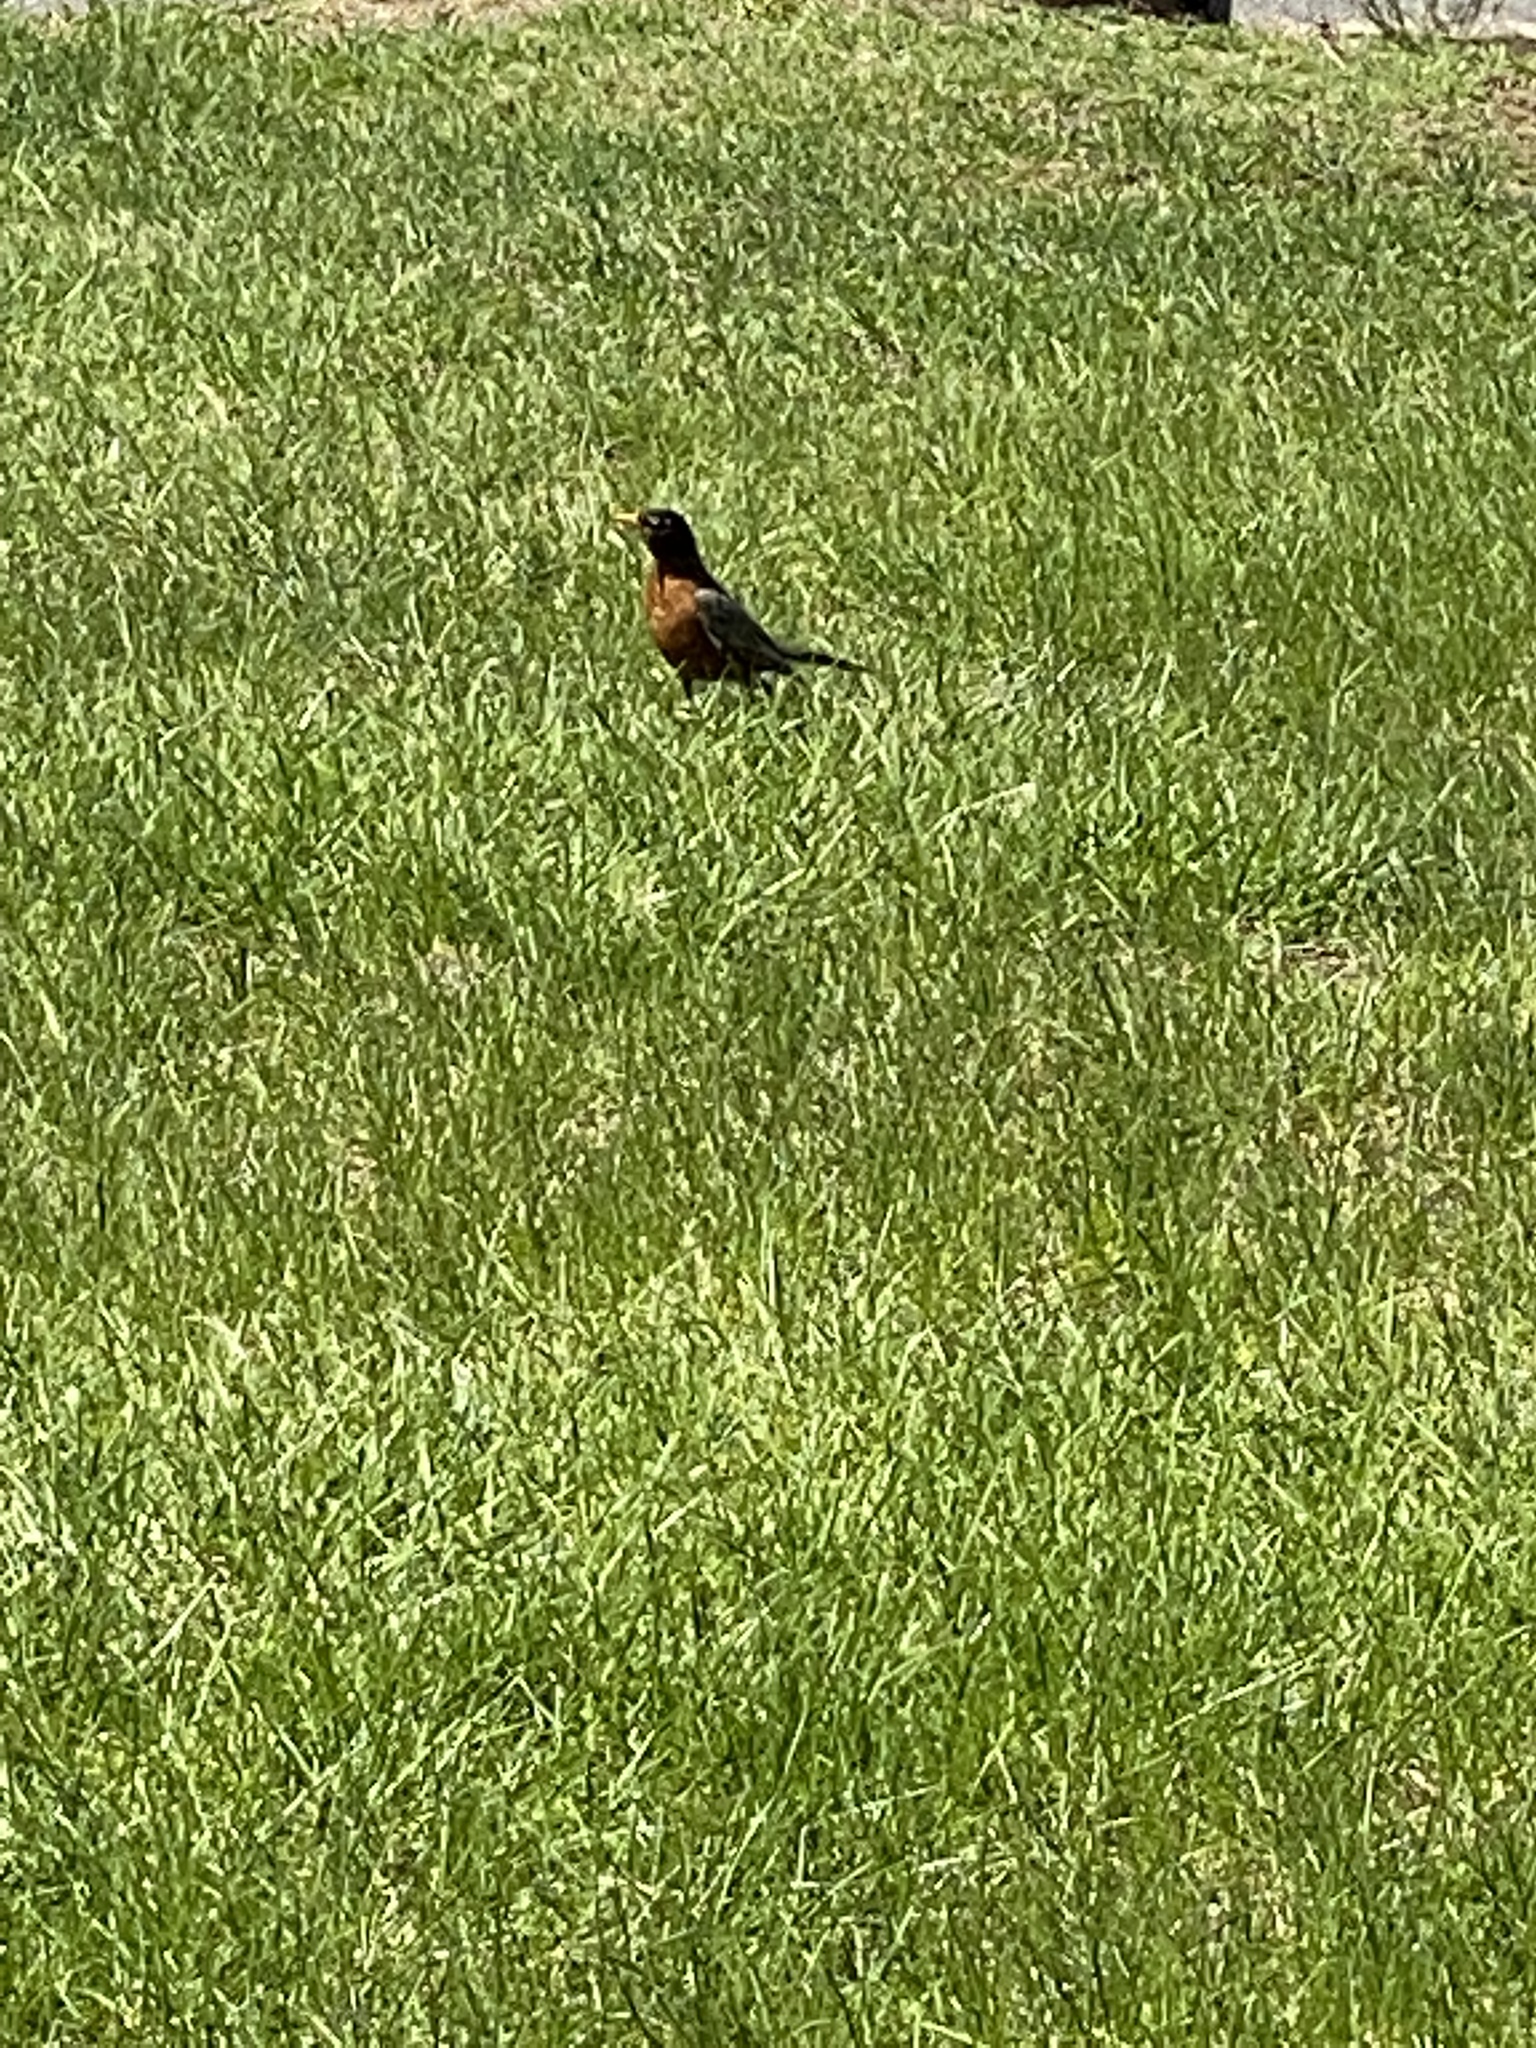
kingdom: Animalia
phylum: Chordata
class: Aves
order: Passeriformes
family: Turdidae
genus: Turdus
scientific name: Turdus migratorius
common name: American robin
